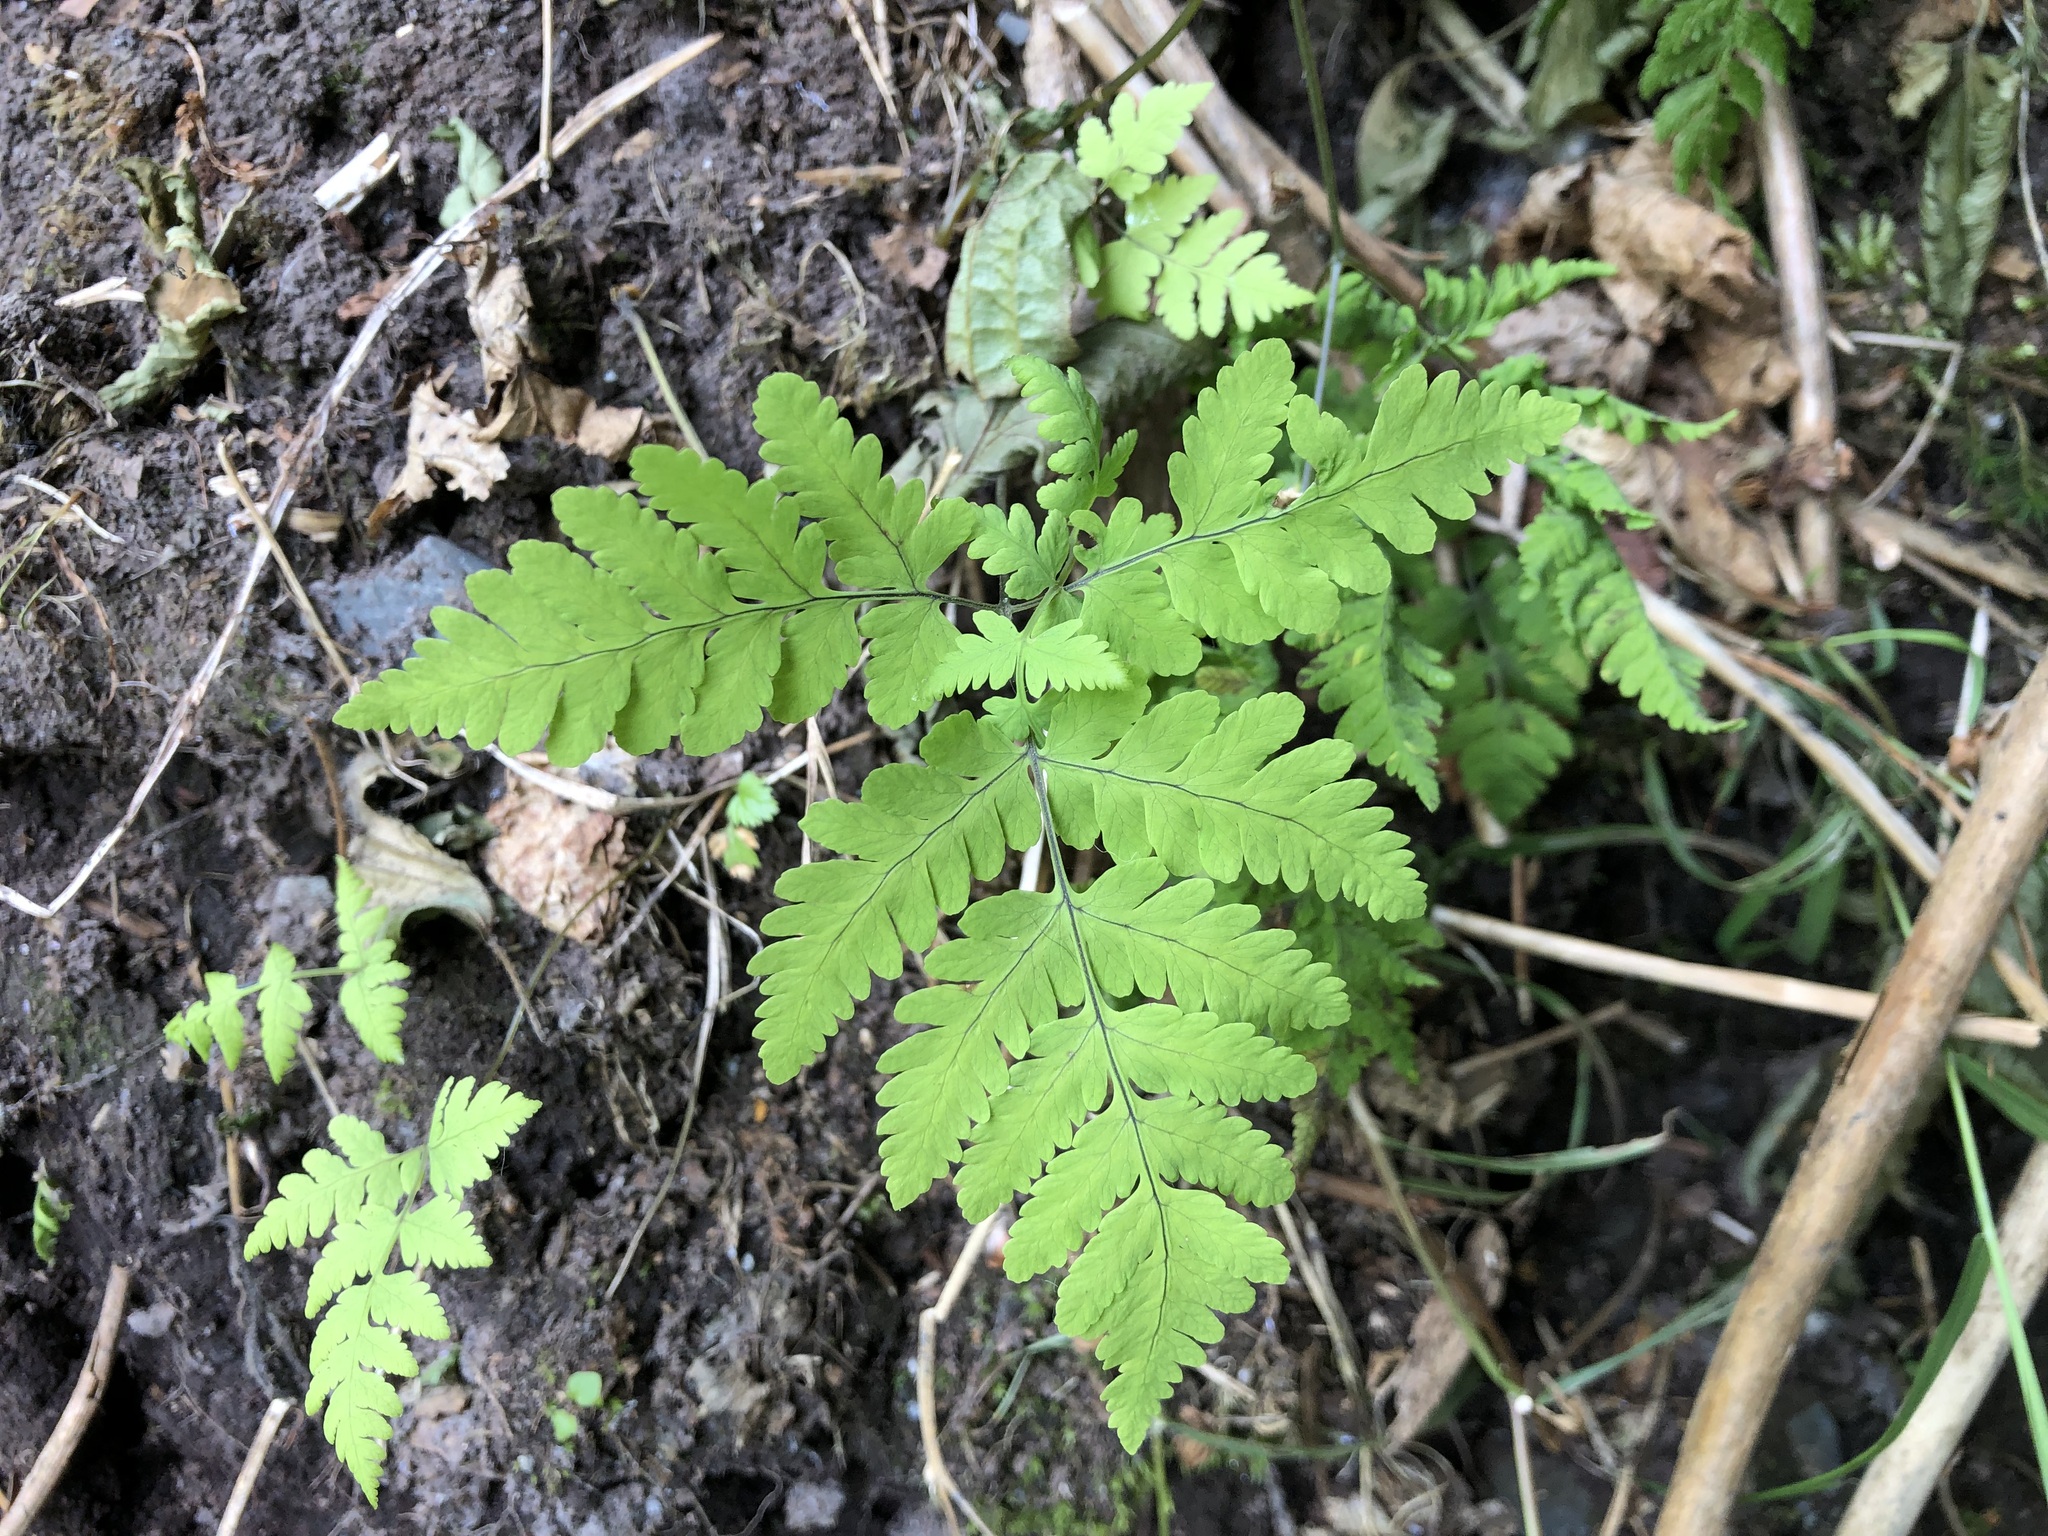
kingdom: Plantae
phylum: Tracheophyta
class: Polypodiopsida
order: Polypodiales
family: Cystopteridaceae
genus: Gymnocarpium
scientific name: Gymnocarpium dryopteris
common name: Oak fern
